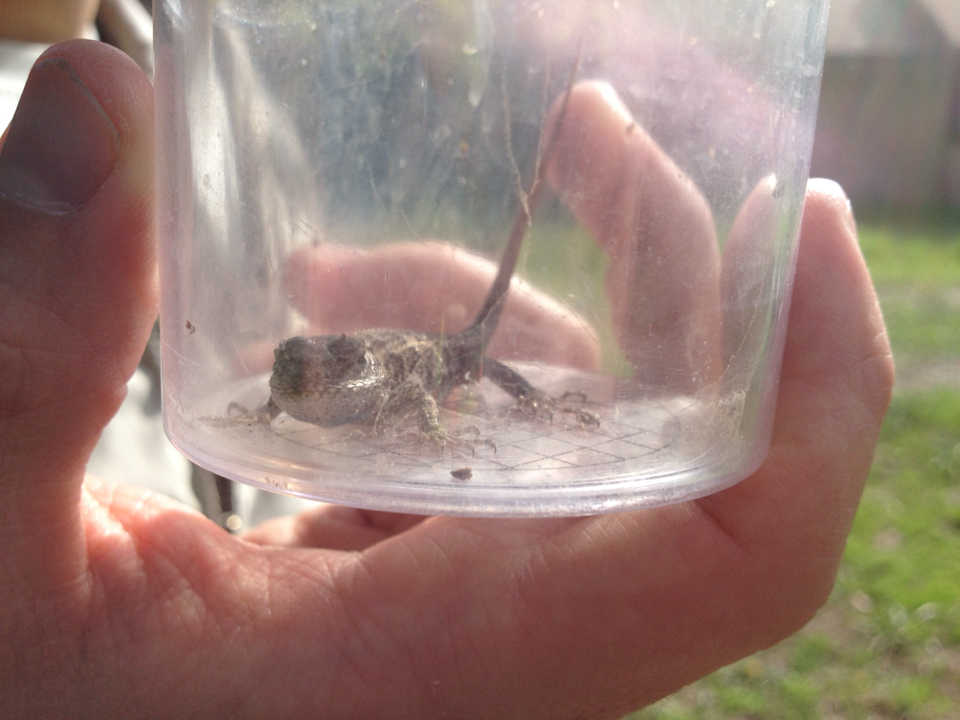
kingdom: Animalia
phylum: Chordata
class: Squamata
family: Phrynosomatidae
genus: Sceloporus
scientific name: Sceloporus occidentalis
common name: Western fence lizard
